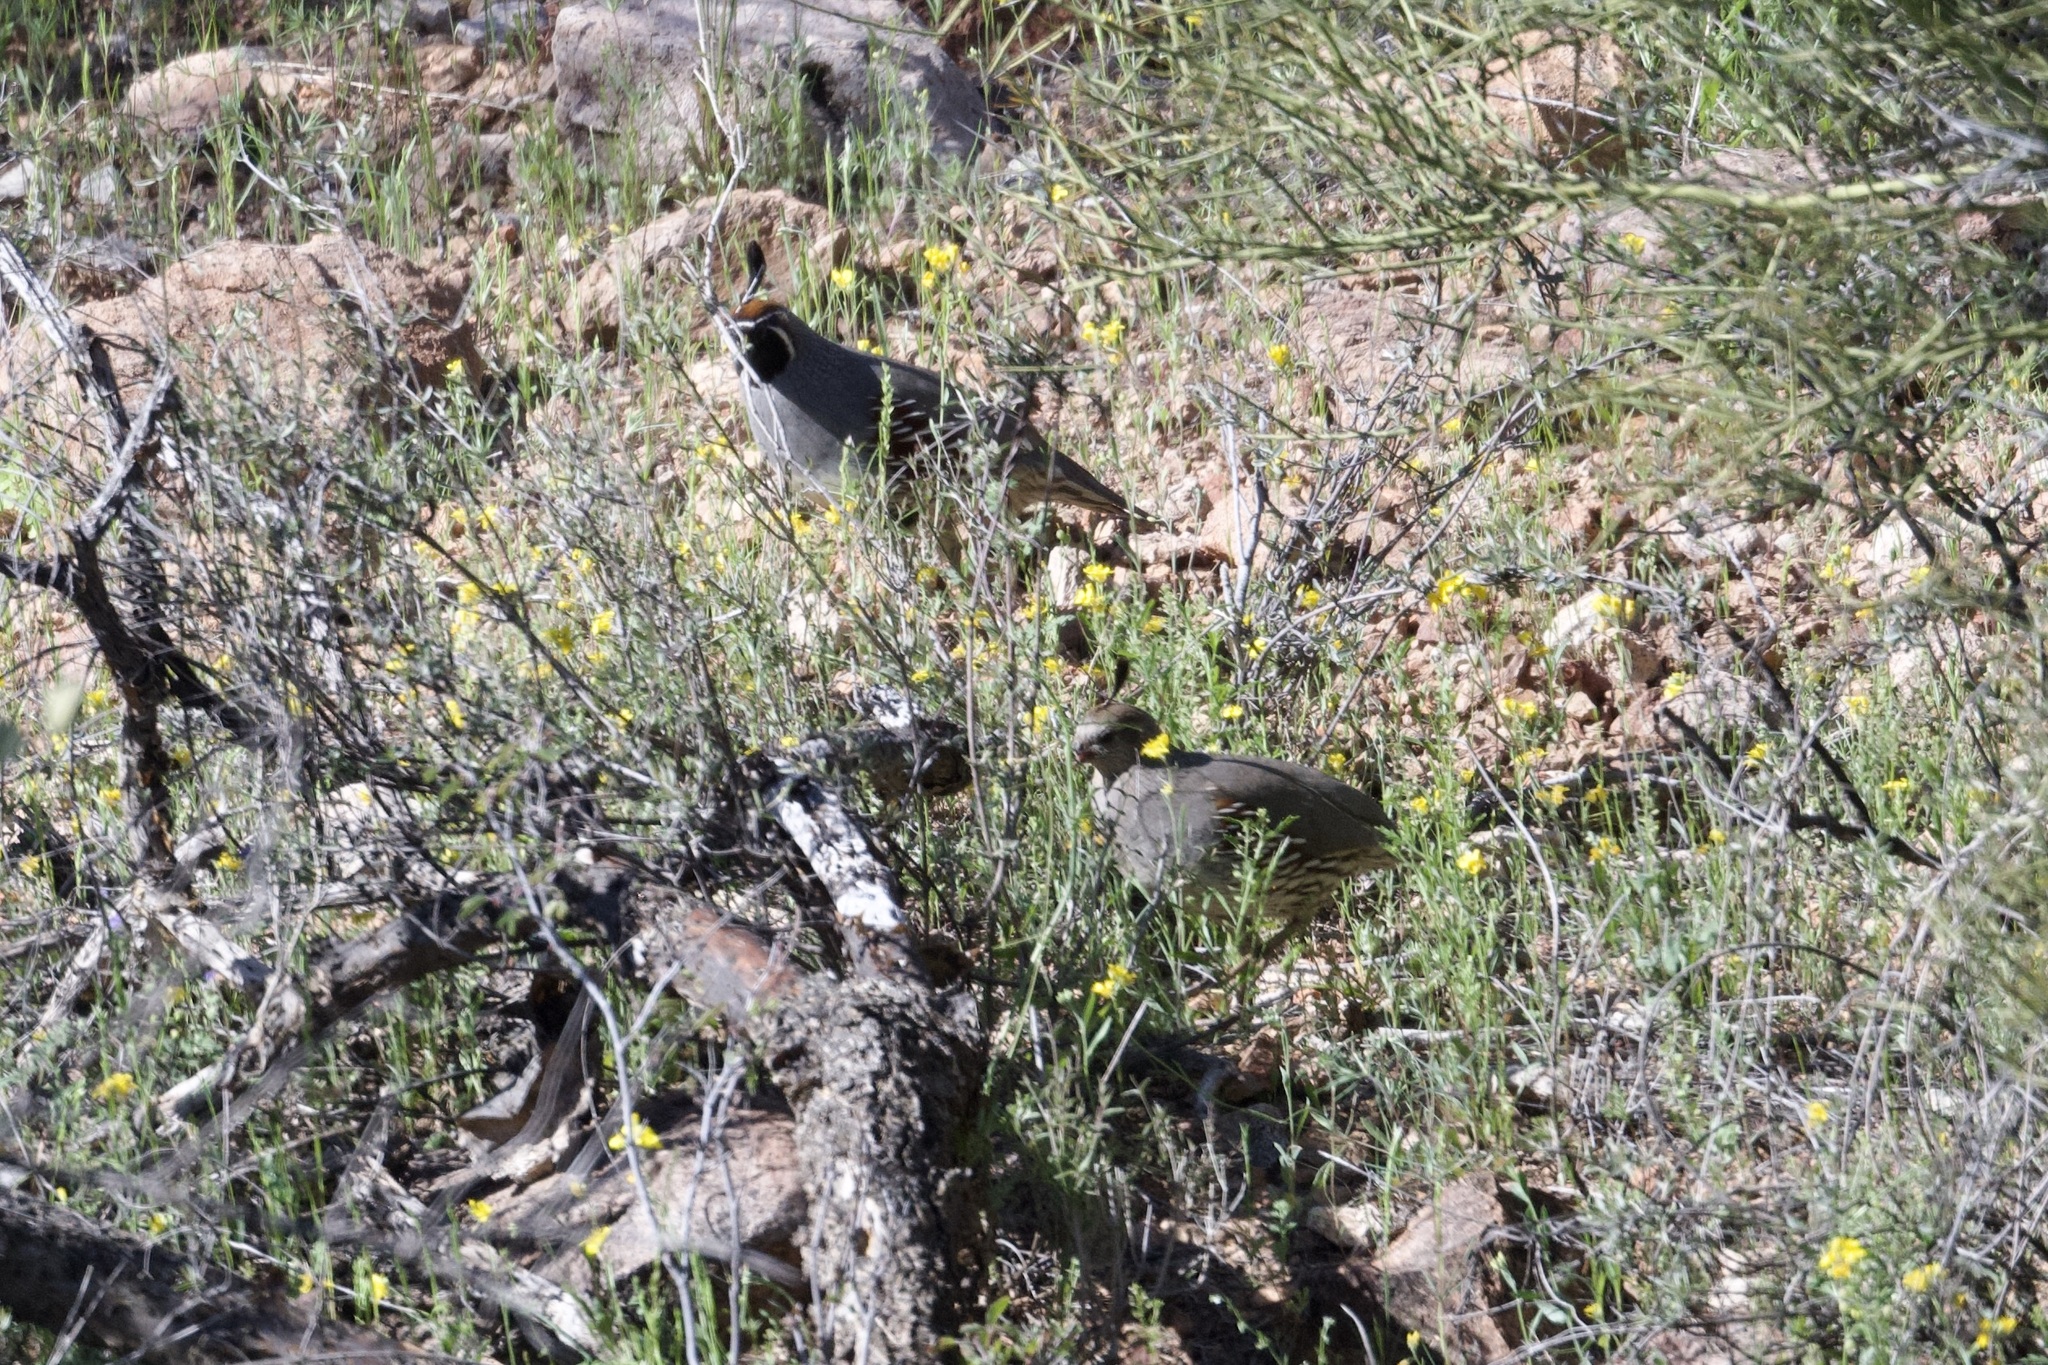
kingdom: Animalia
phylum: Chordata
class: Aves
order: Galliformes
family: Odontophoridae
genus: Callipepla
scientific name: Callipepla gambelii
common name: Gambel's quail
